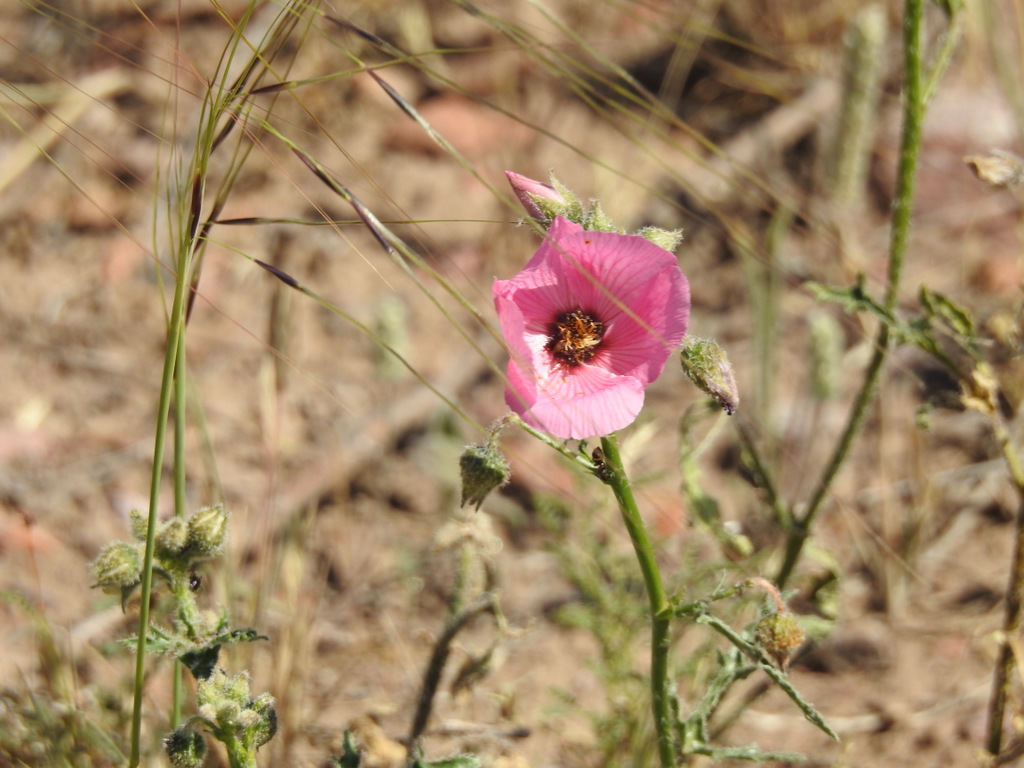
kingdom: Plantae
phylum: Tracheophyta
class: Magnoliopsida
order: Malvales
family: Malvaceae
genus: Lecanophora
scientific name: Lecanophora heterophylla
